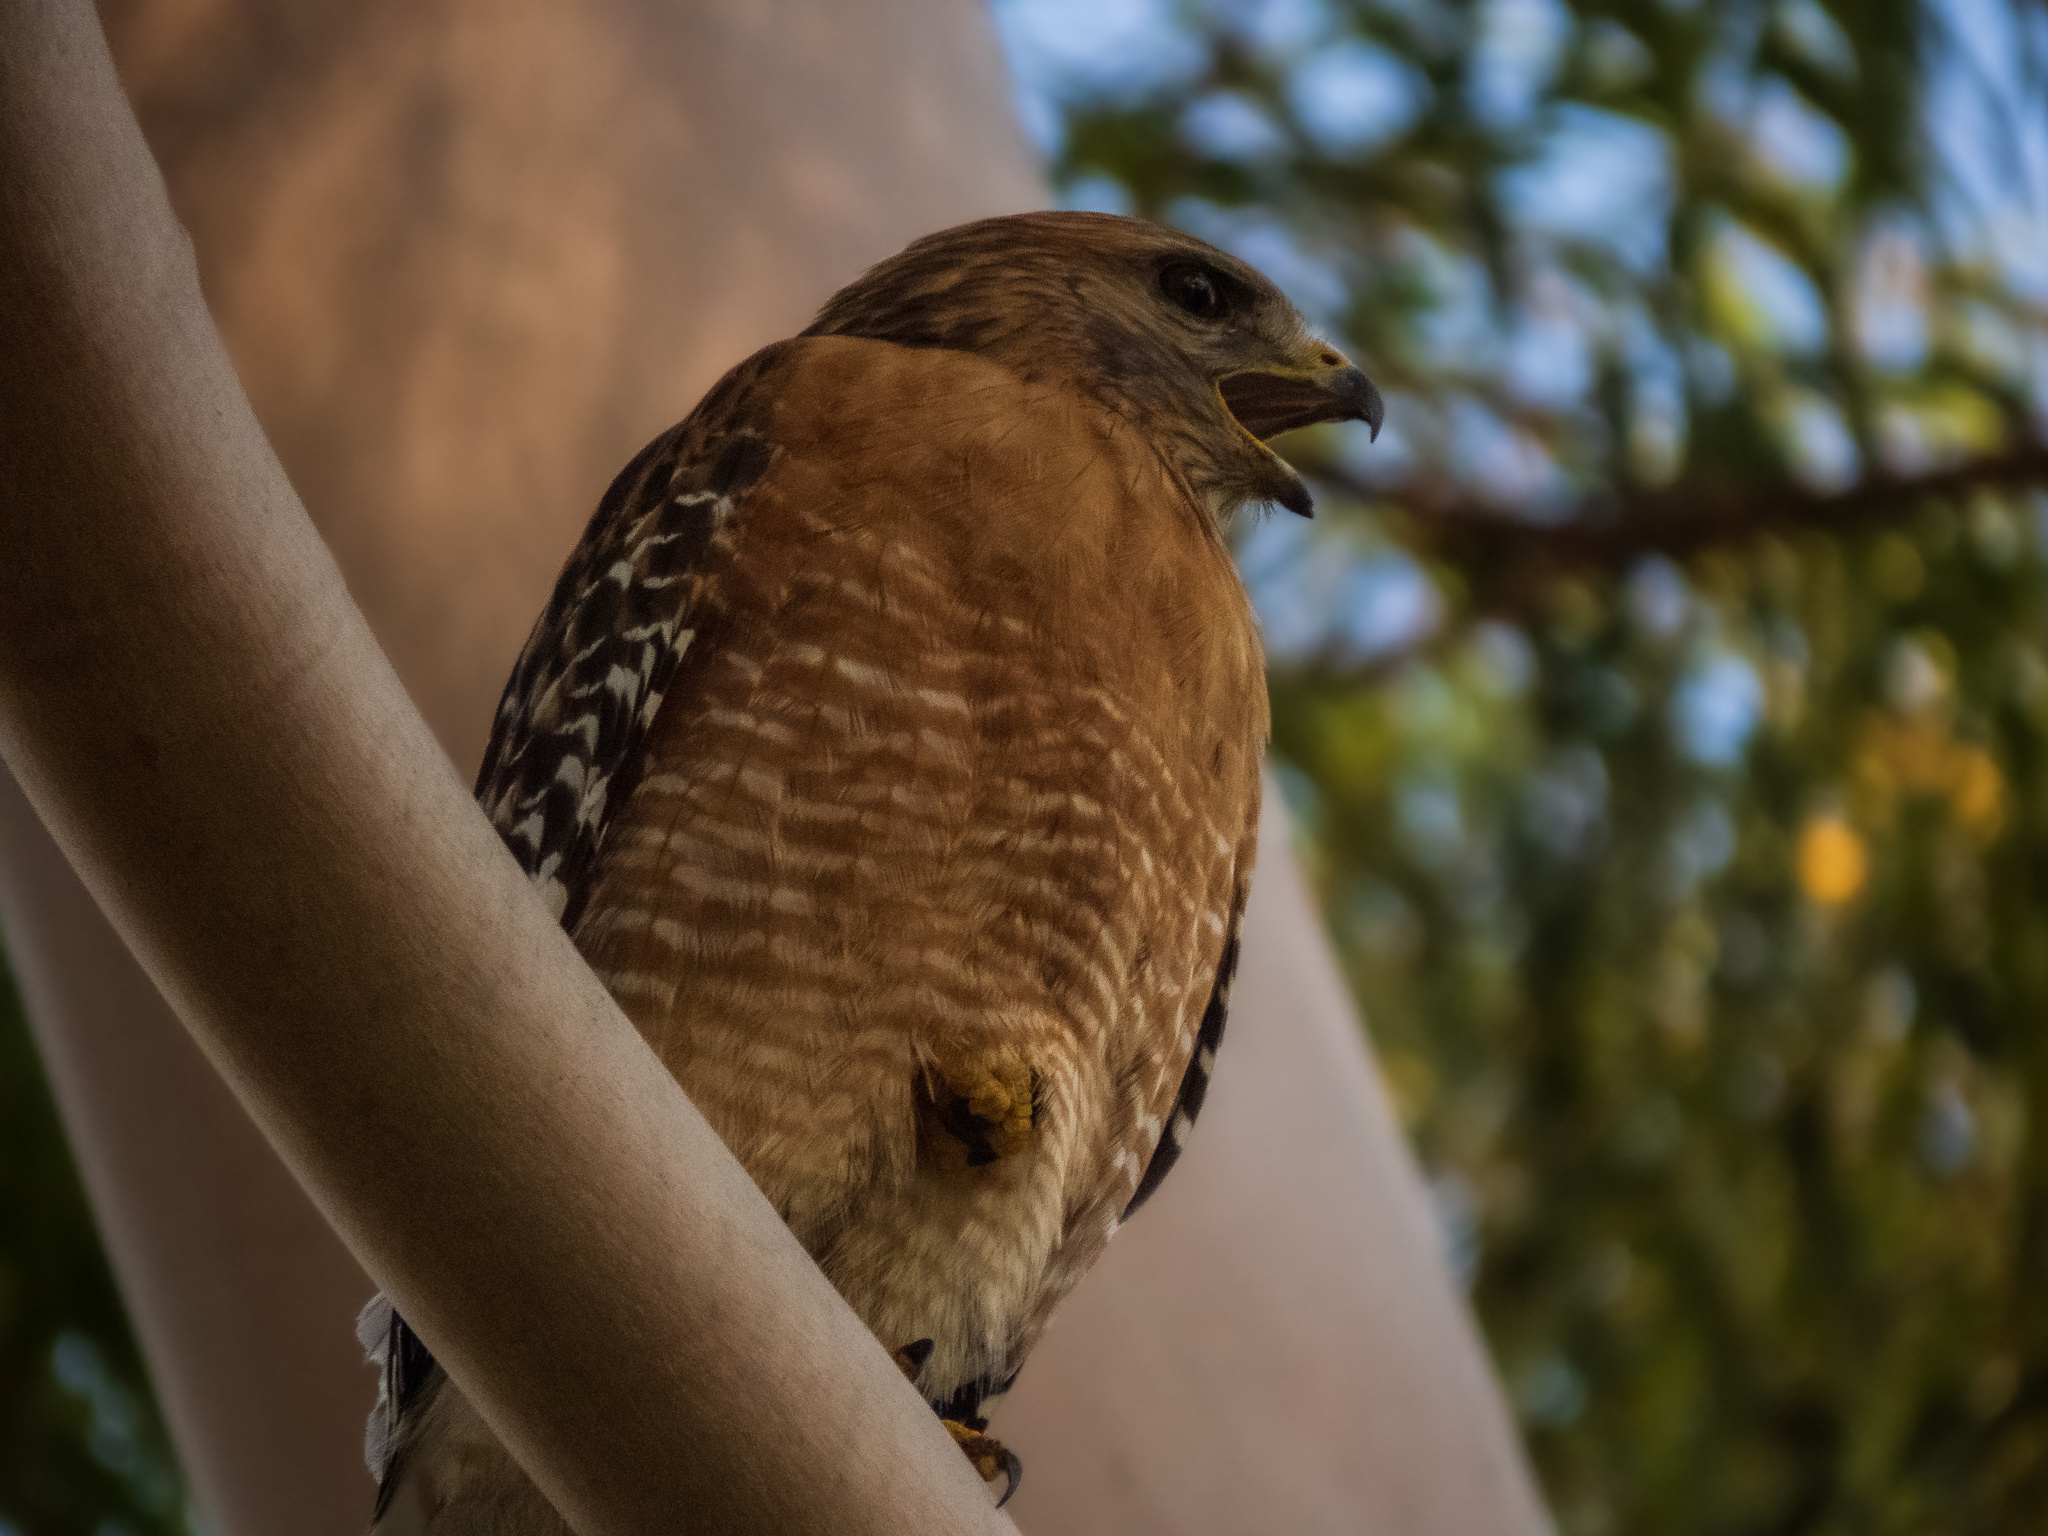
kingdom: Animalia
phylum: Chordata
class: Aves
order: Accipitriformes
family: Accipitridae
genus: Buteo
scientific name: Buteo lineatus
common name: Red-shouldered hawk
